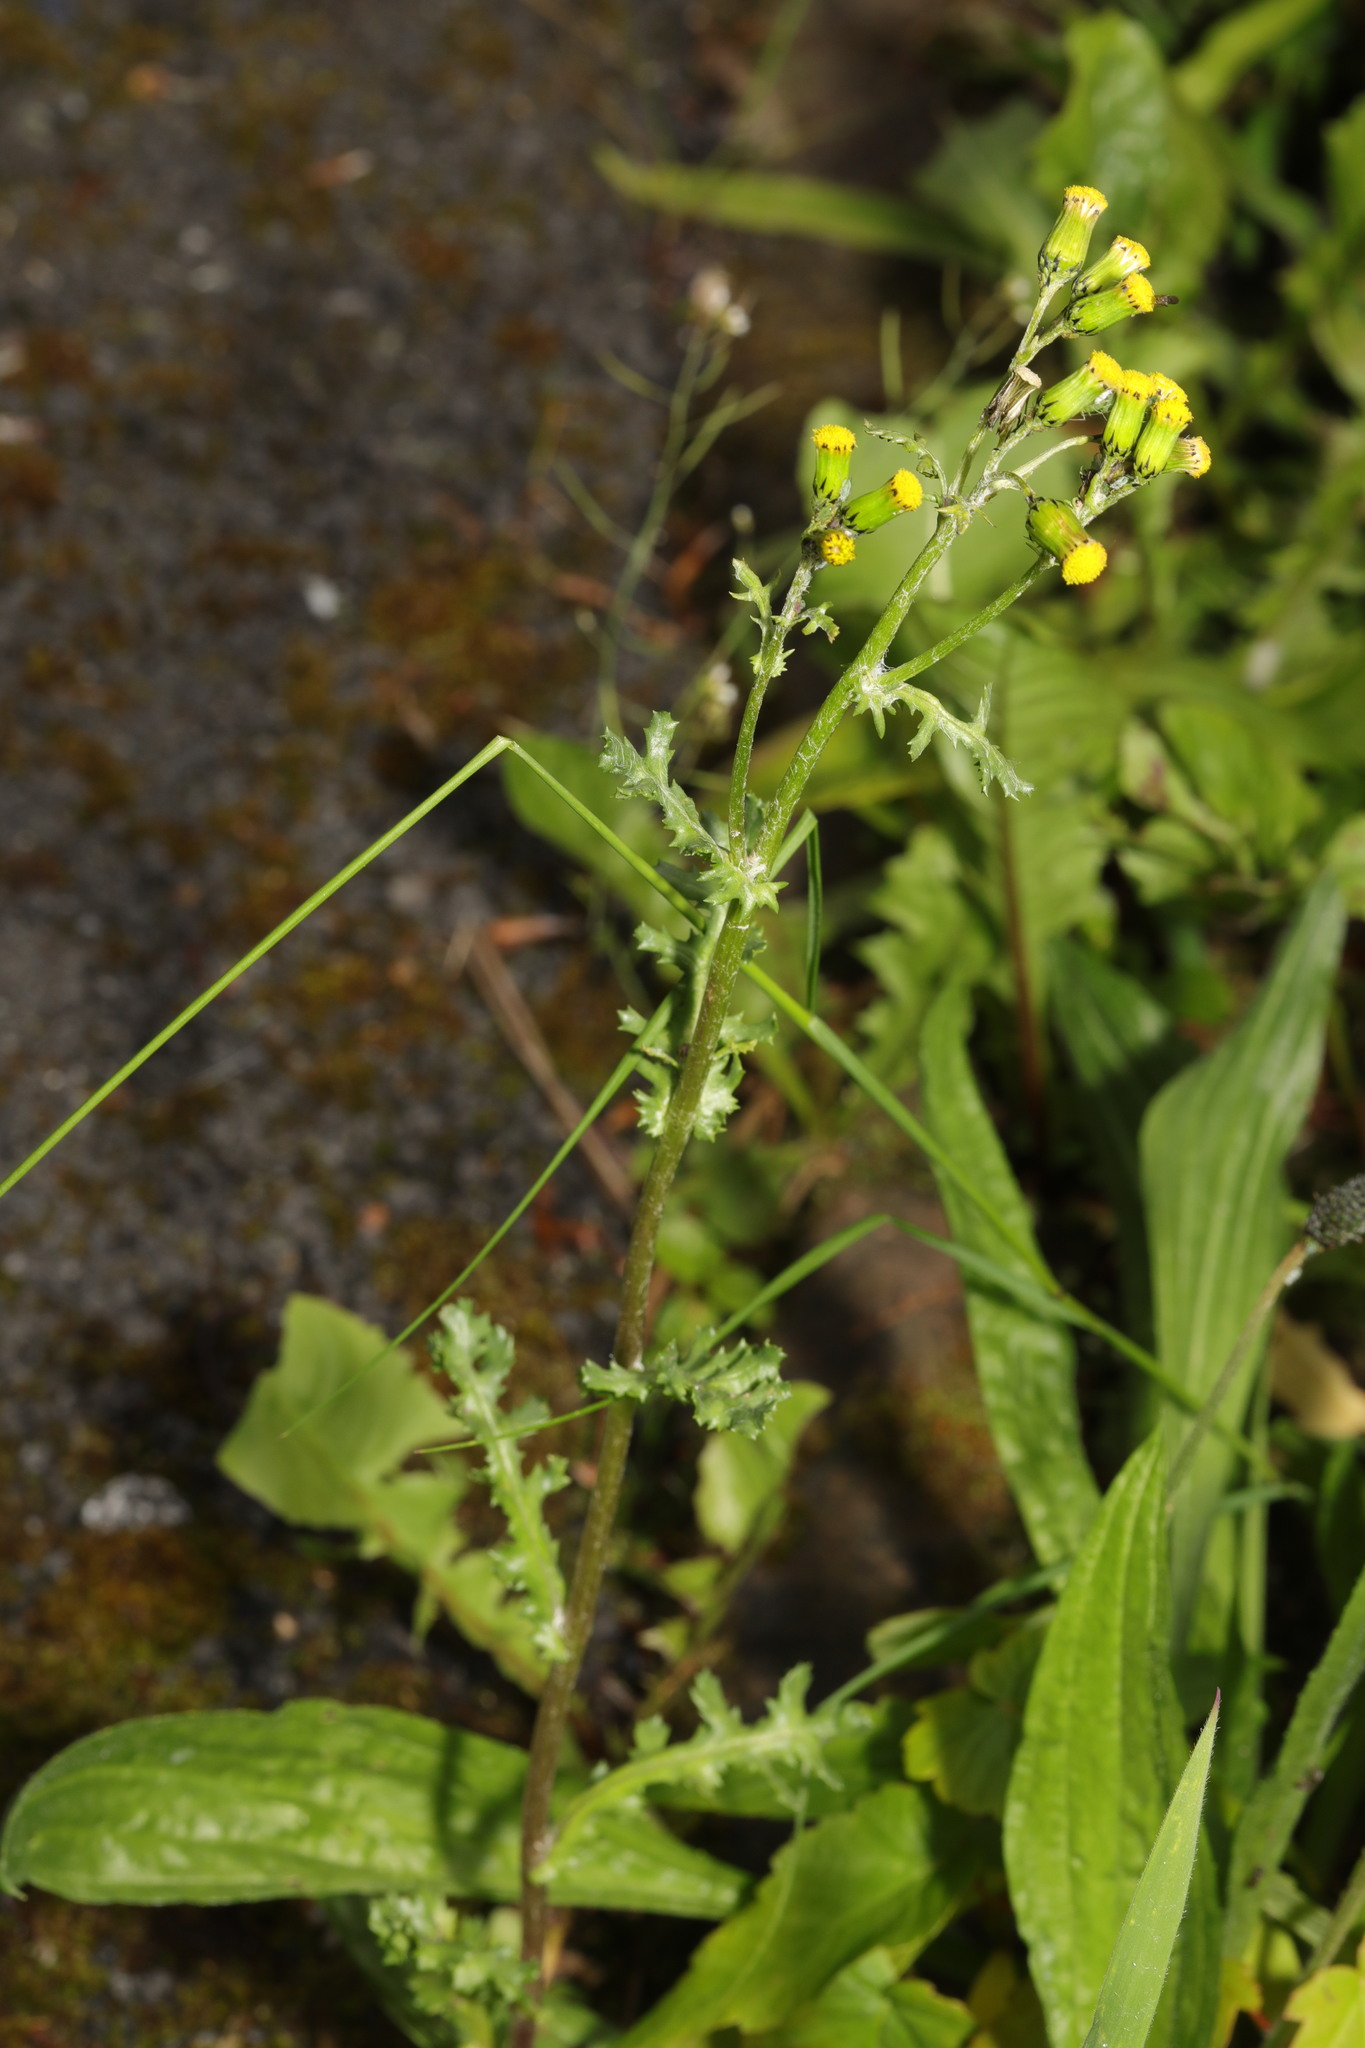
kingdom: Plantae
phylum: Tracheophyta
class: Magnoliopsida
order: Asterales
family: Asteraceae
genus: Senecio
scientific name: Senecio vulgaris
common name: Old-man-in-the-spring
